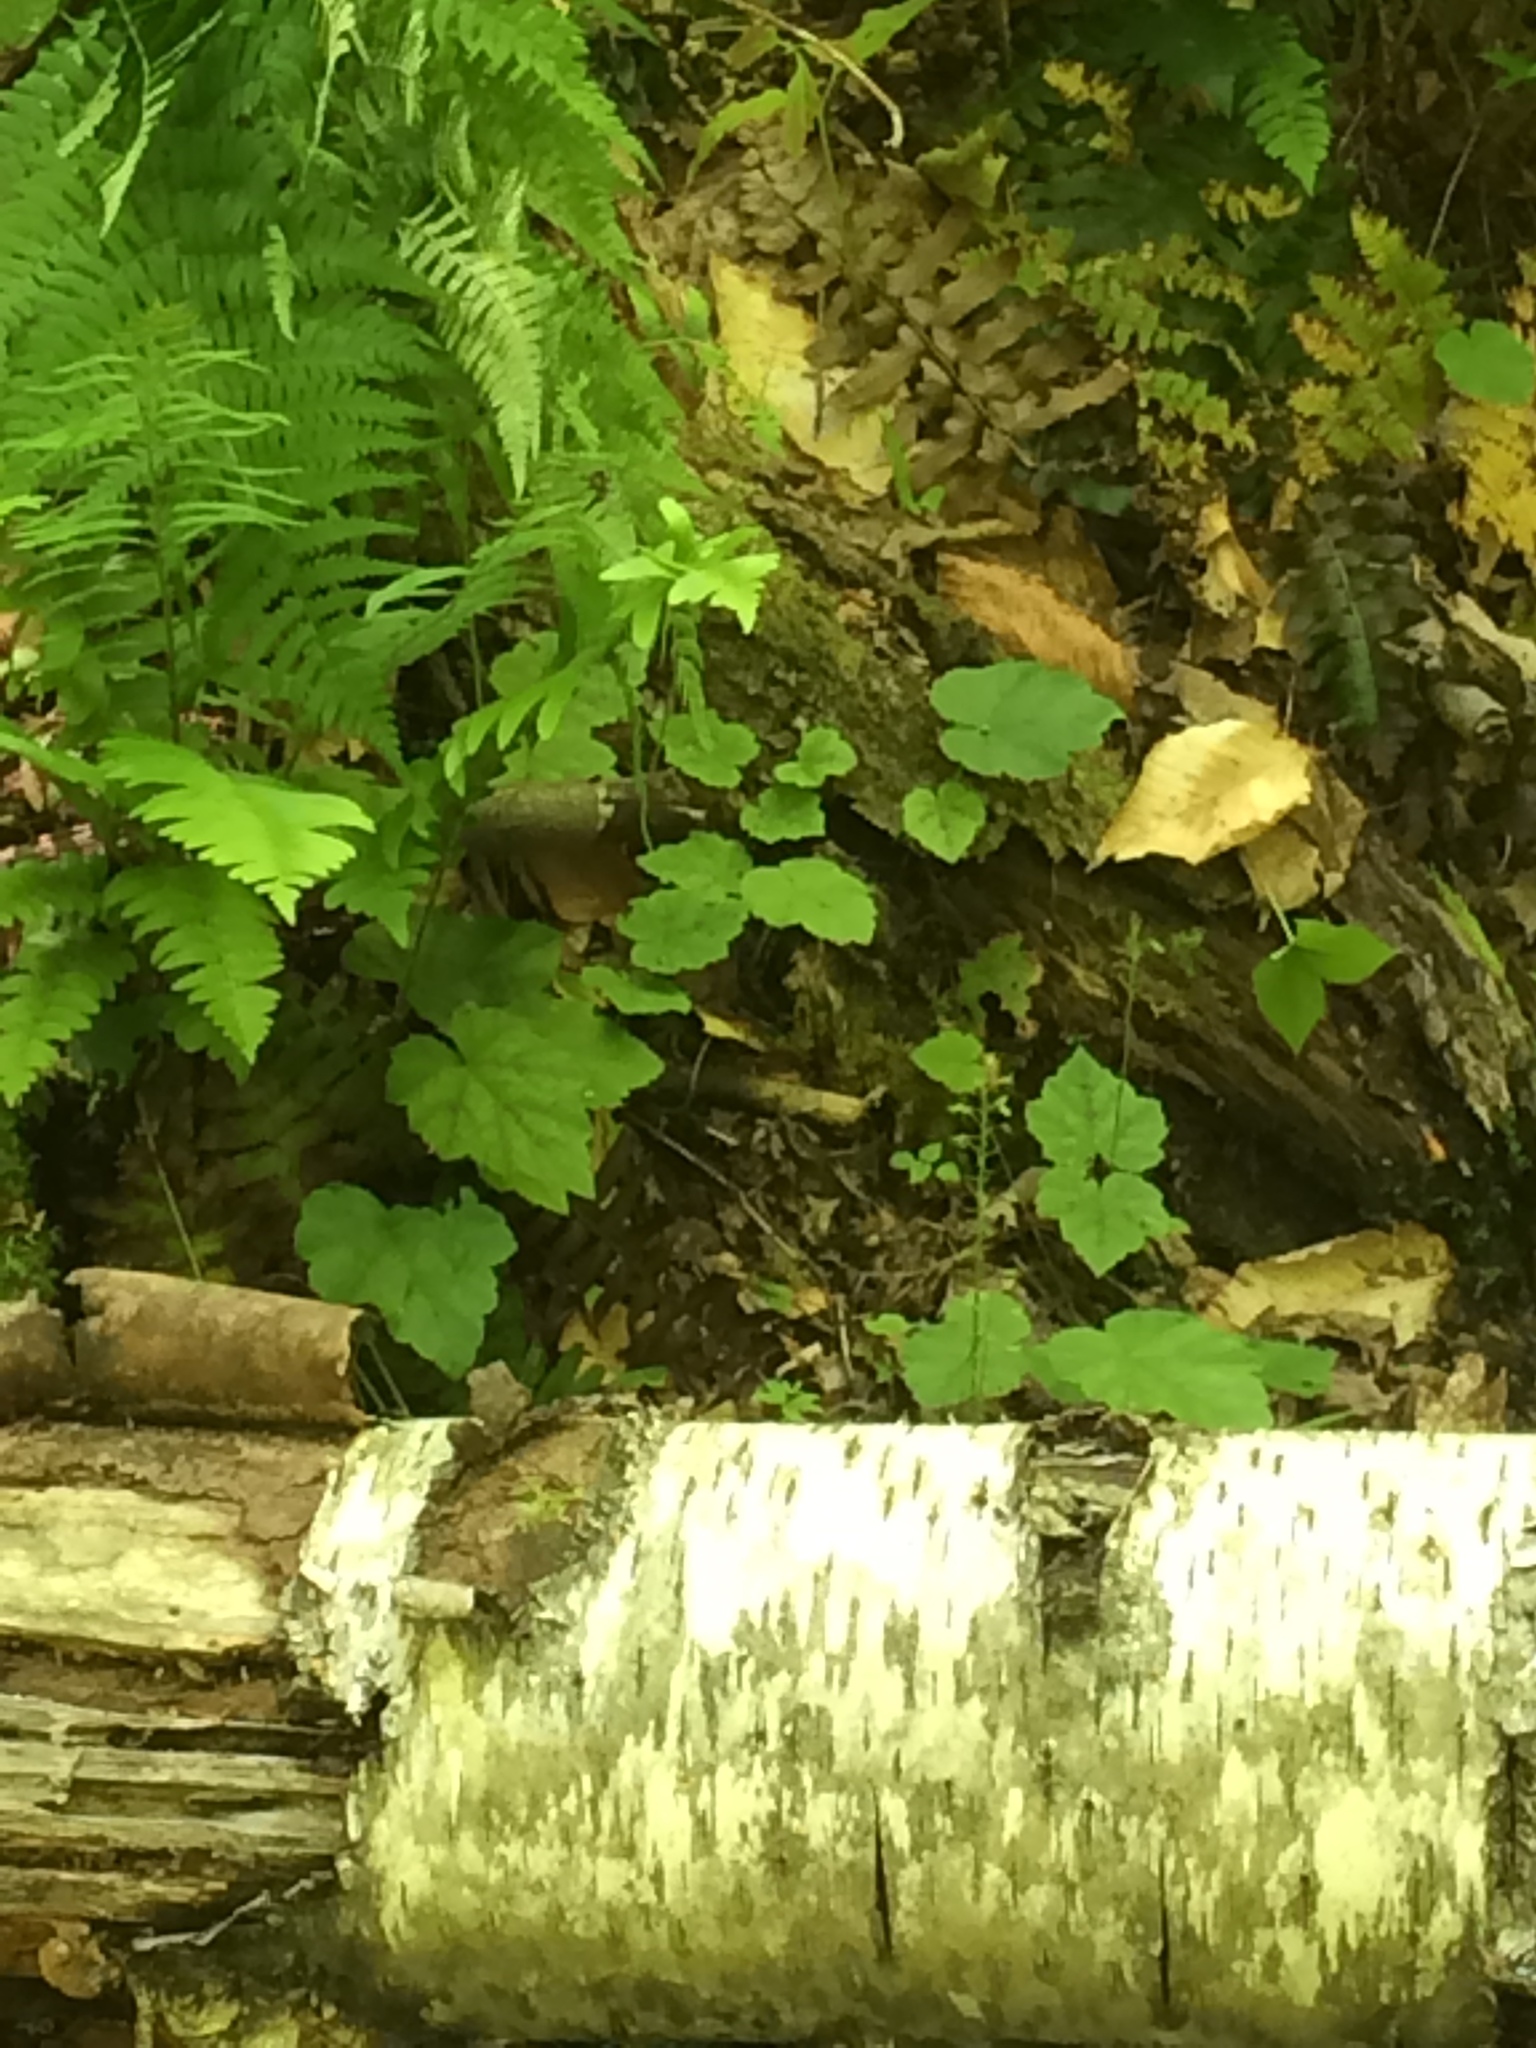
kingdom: Plantae
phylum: Tracheophyta
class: Magnoliopsida
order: Saxifragales
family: Saxifragaceae
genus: Tiarella
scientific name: Tiarella stolonifera
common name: Stoloniferous foamflower
